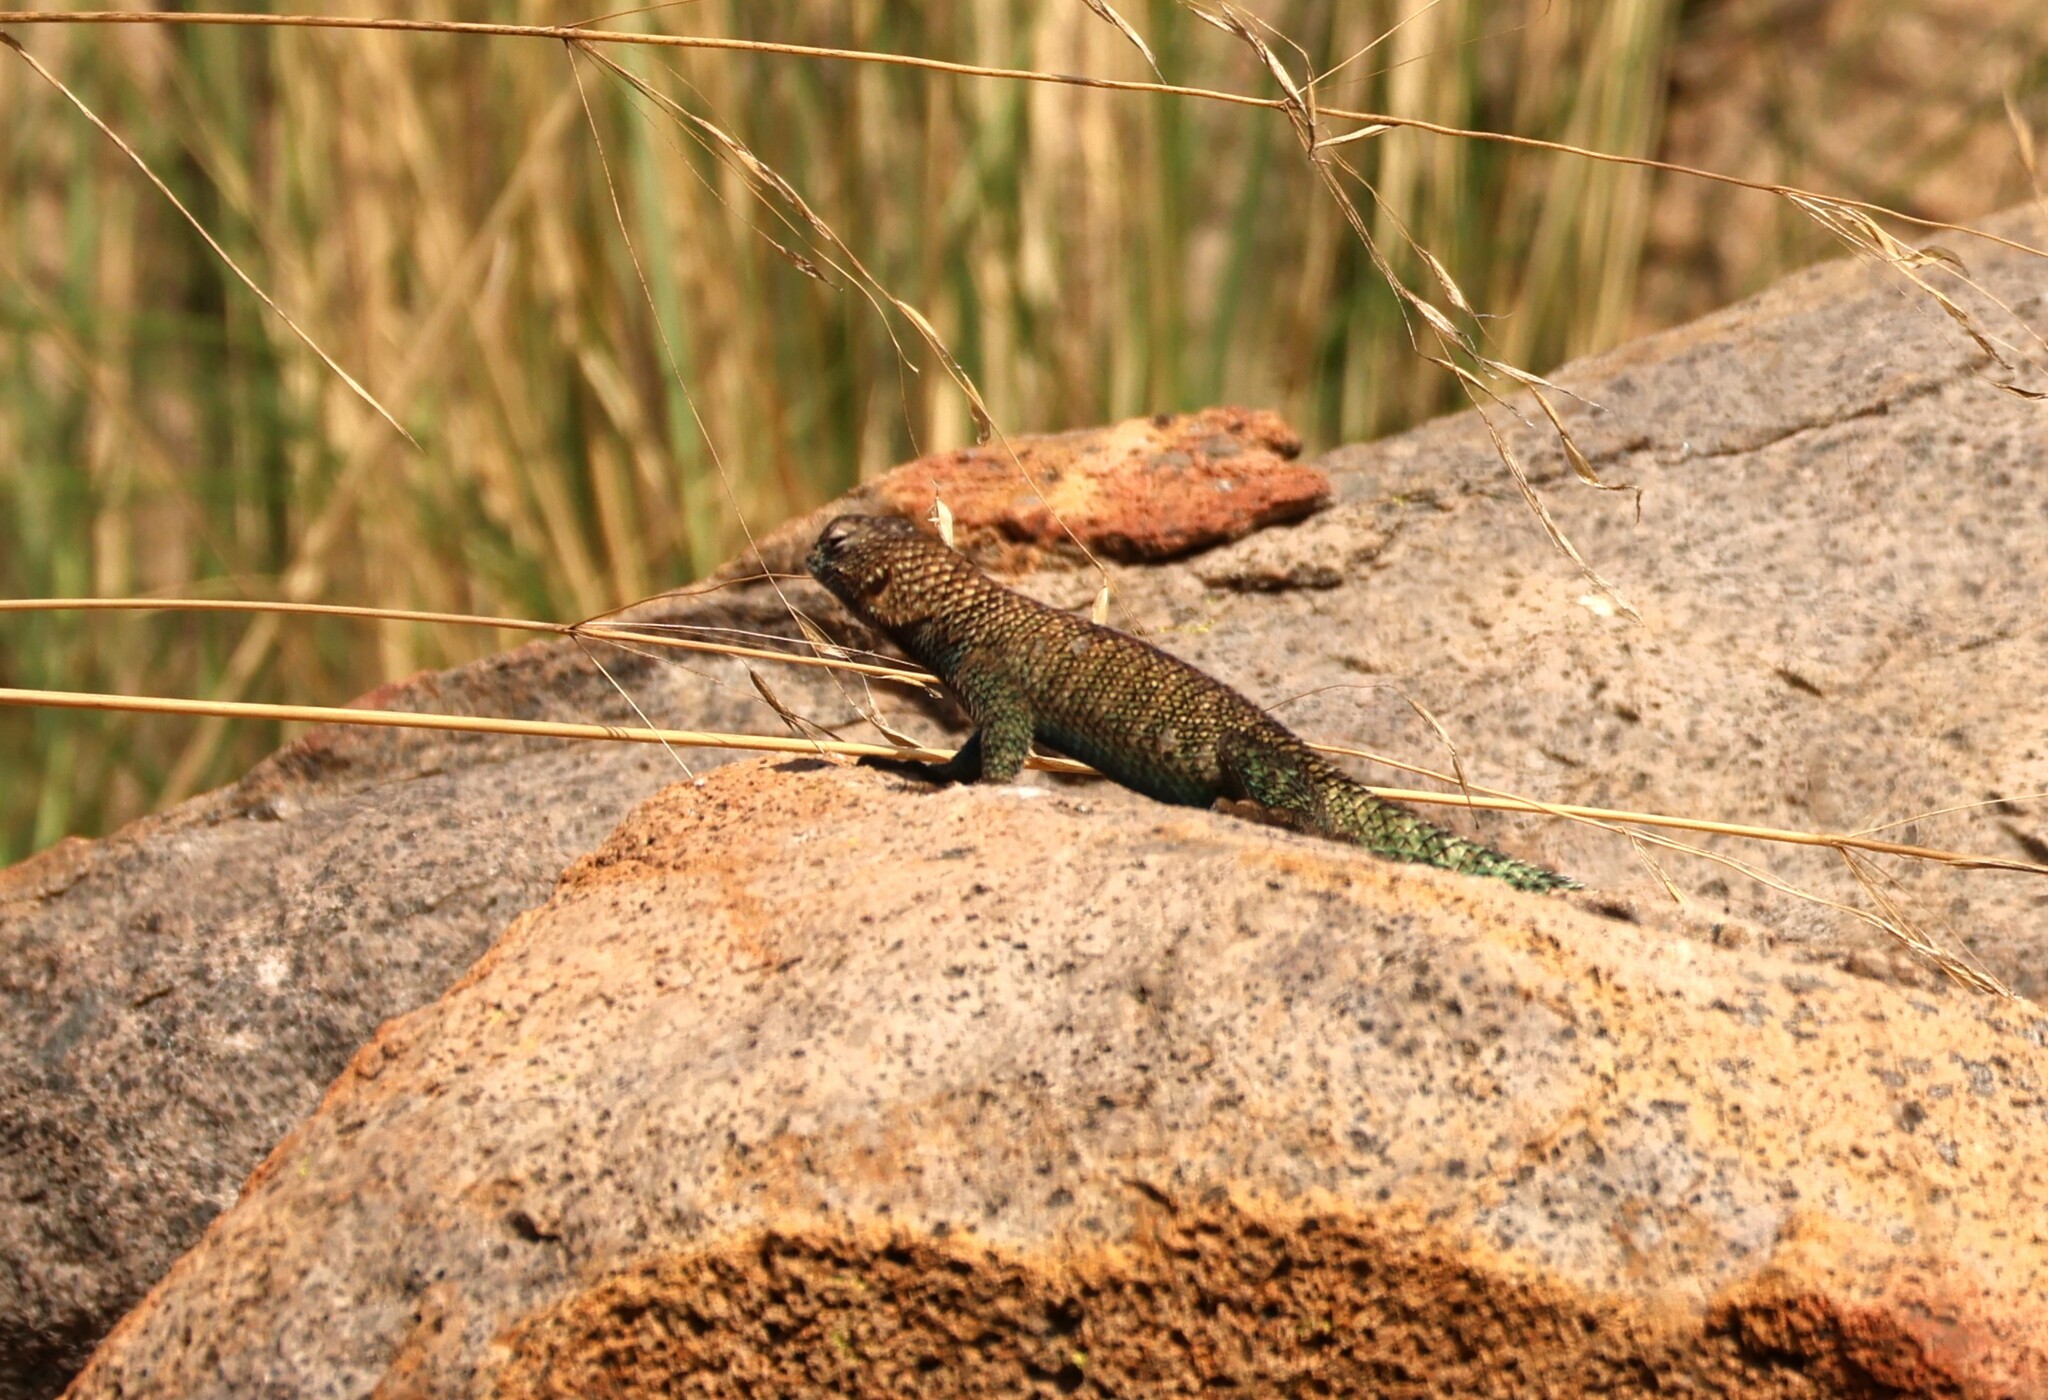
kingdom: Animalia
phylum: Chordata
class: Squamata
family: Phrynosomatidae
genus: Sceloporus
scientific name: Sceloporus orcutti
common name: Granite spiny lizard
